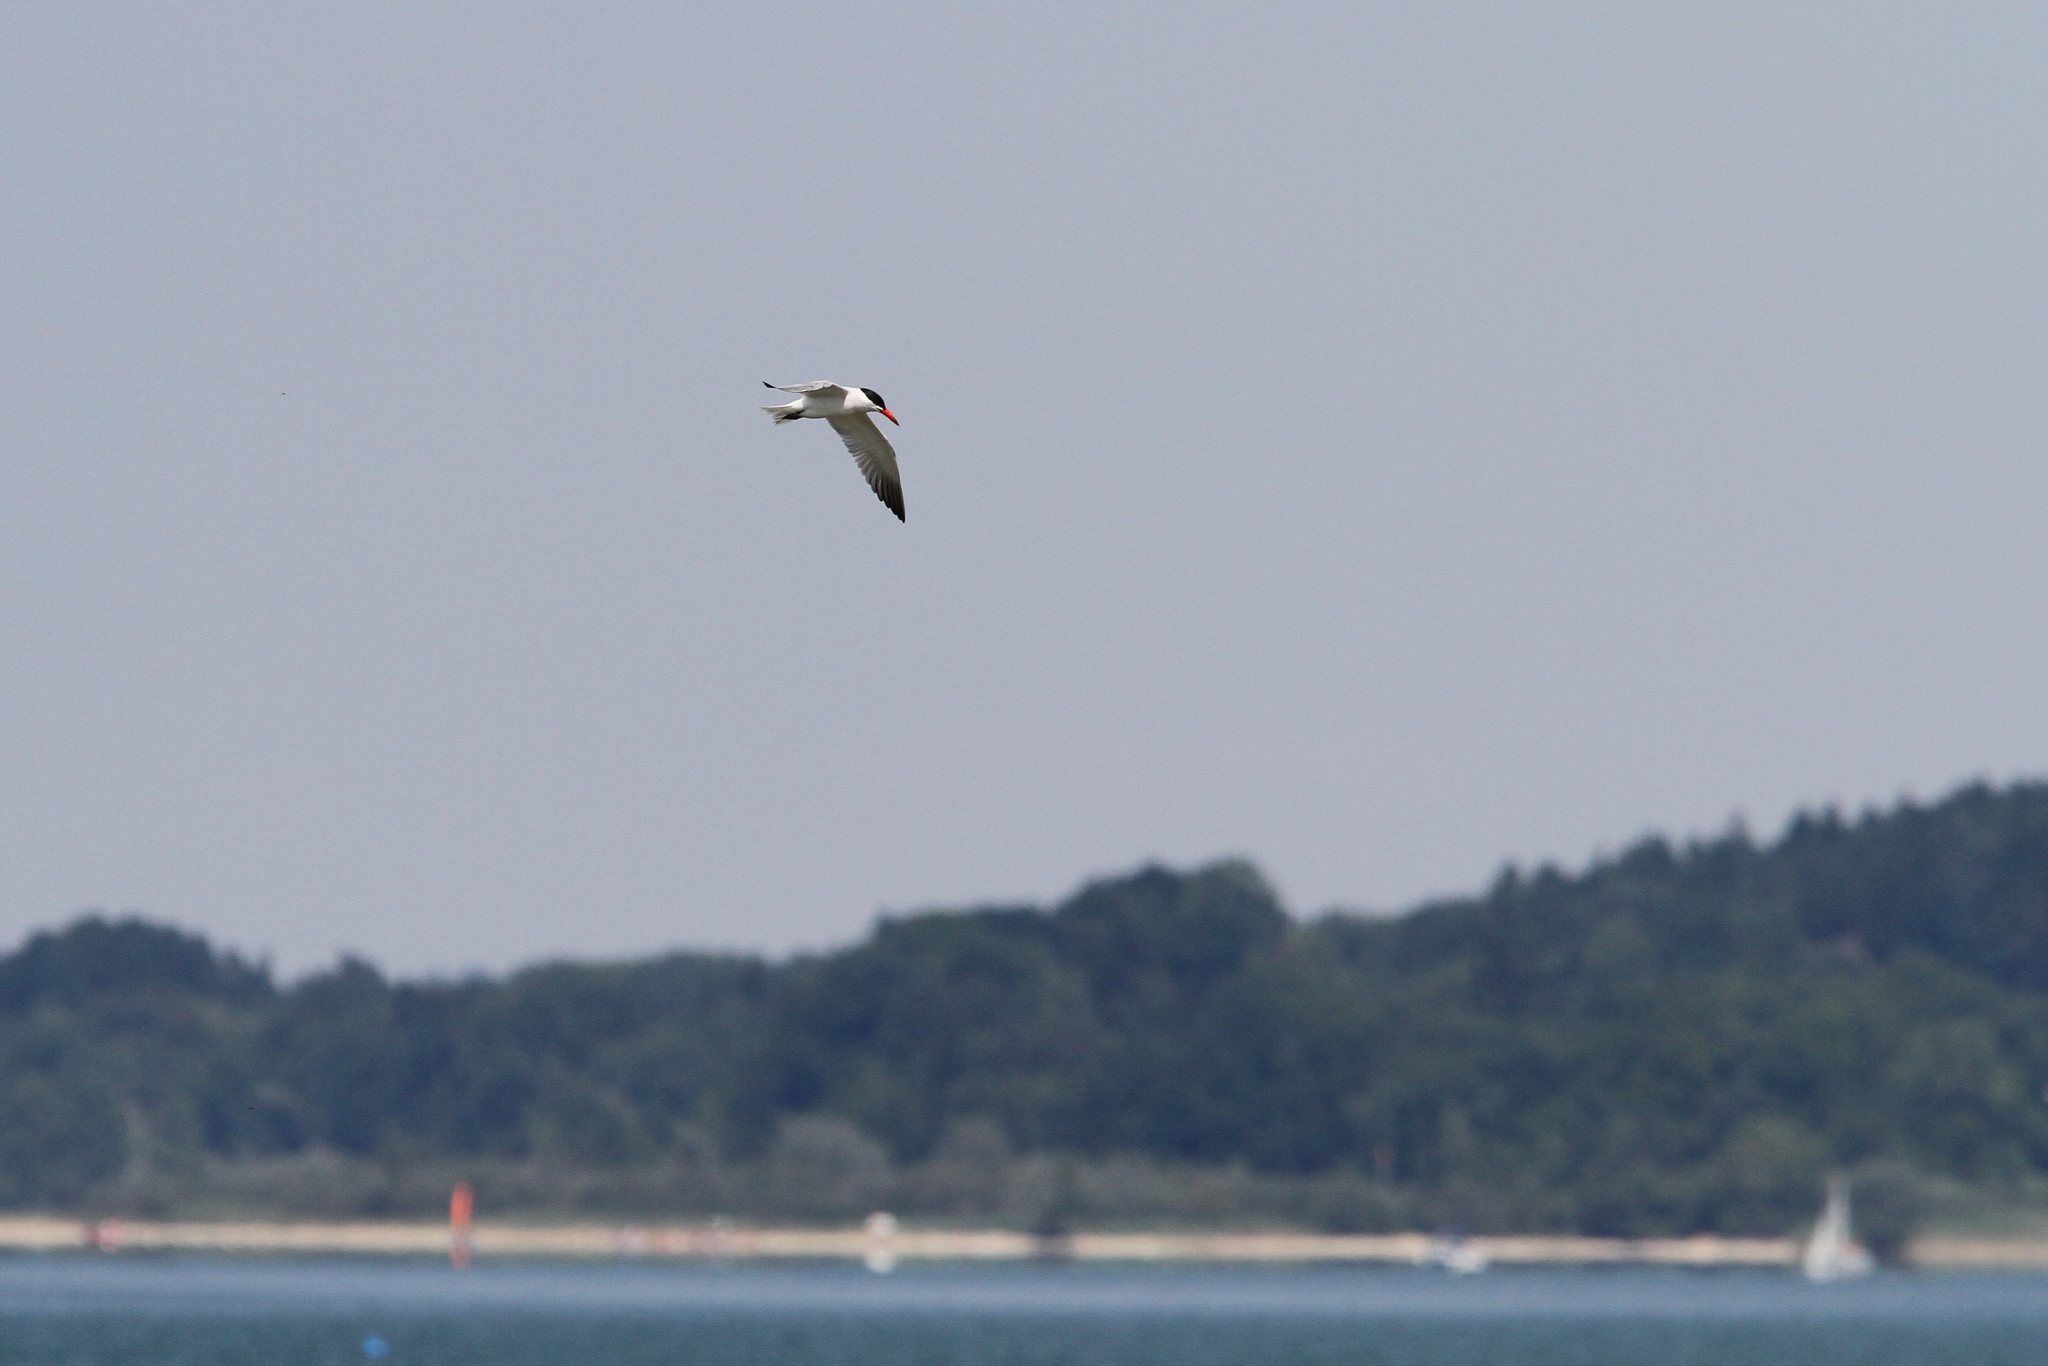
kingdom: Animalia
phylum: Chordata
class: Aves
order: Charadriiformes
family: Laridae
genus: Hydroprogne
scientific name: Hydroprogne caspia
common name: Caspian tern
